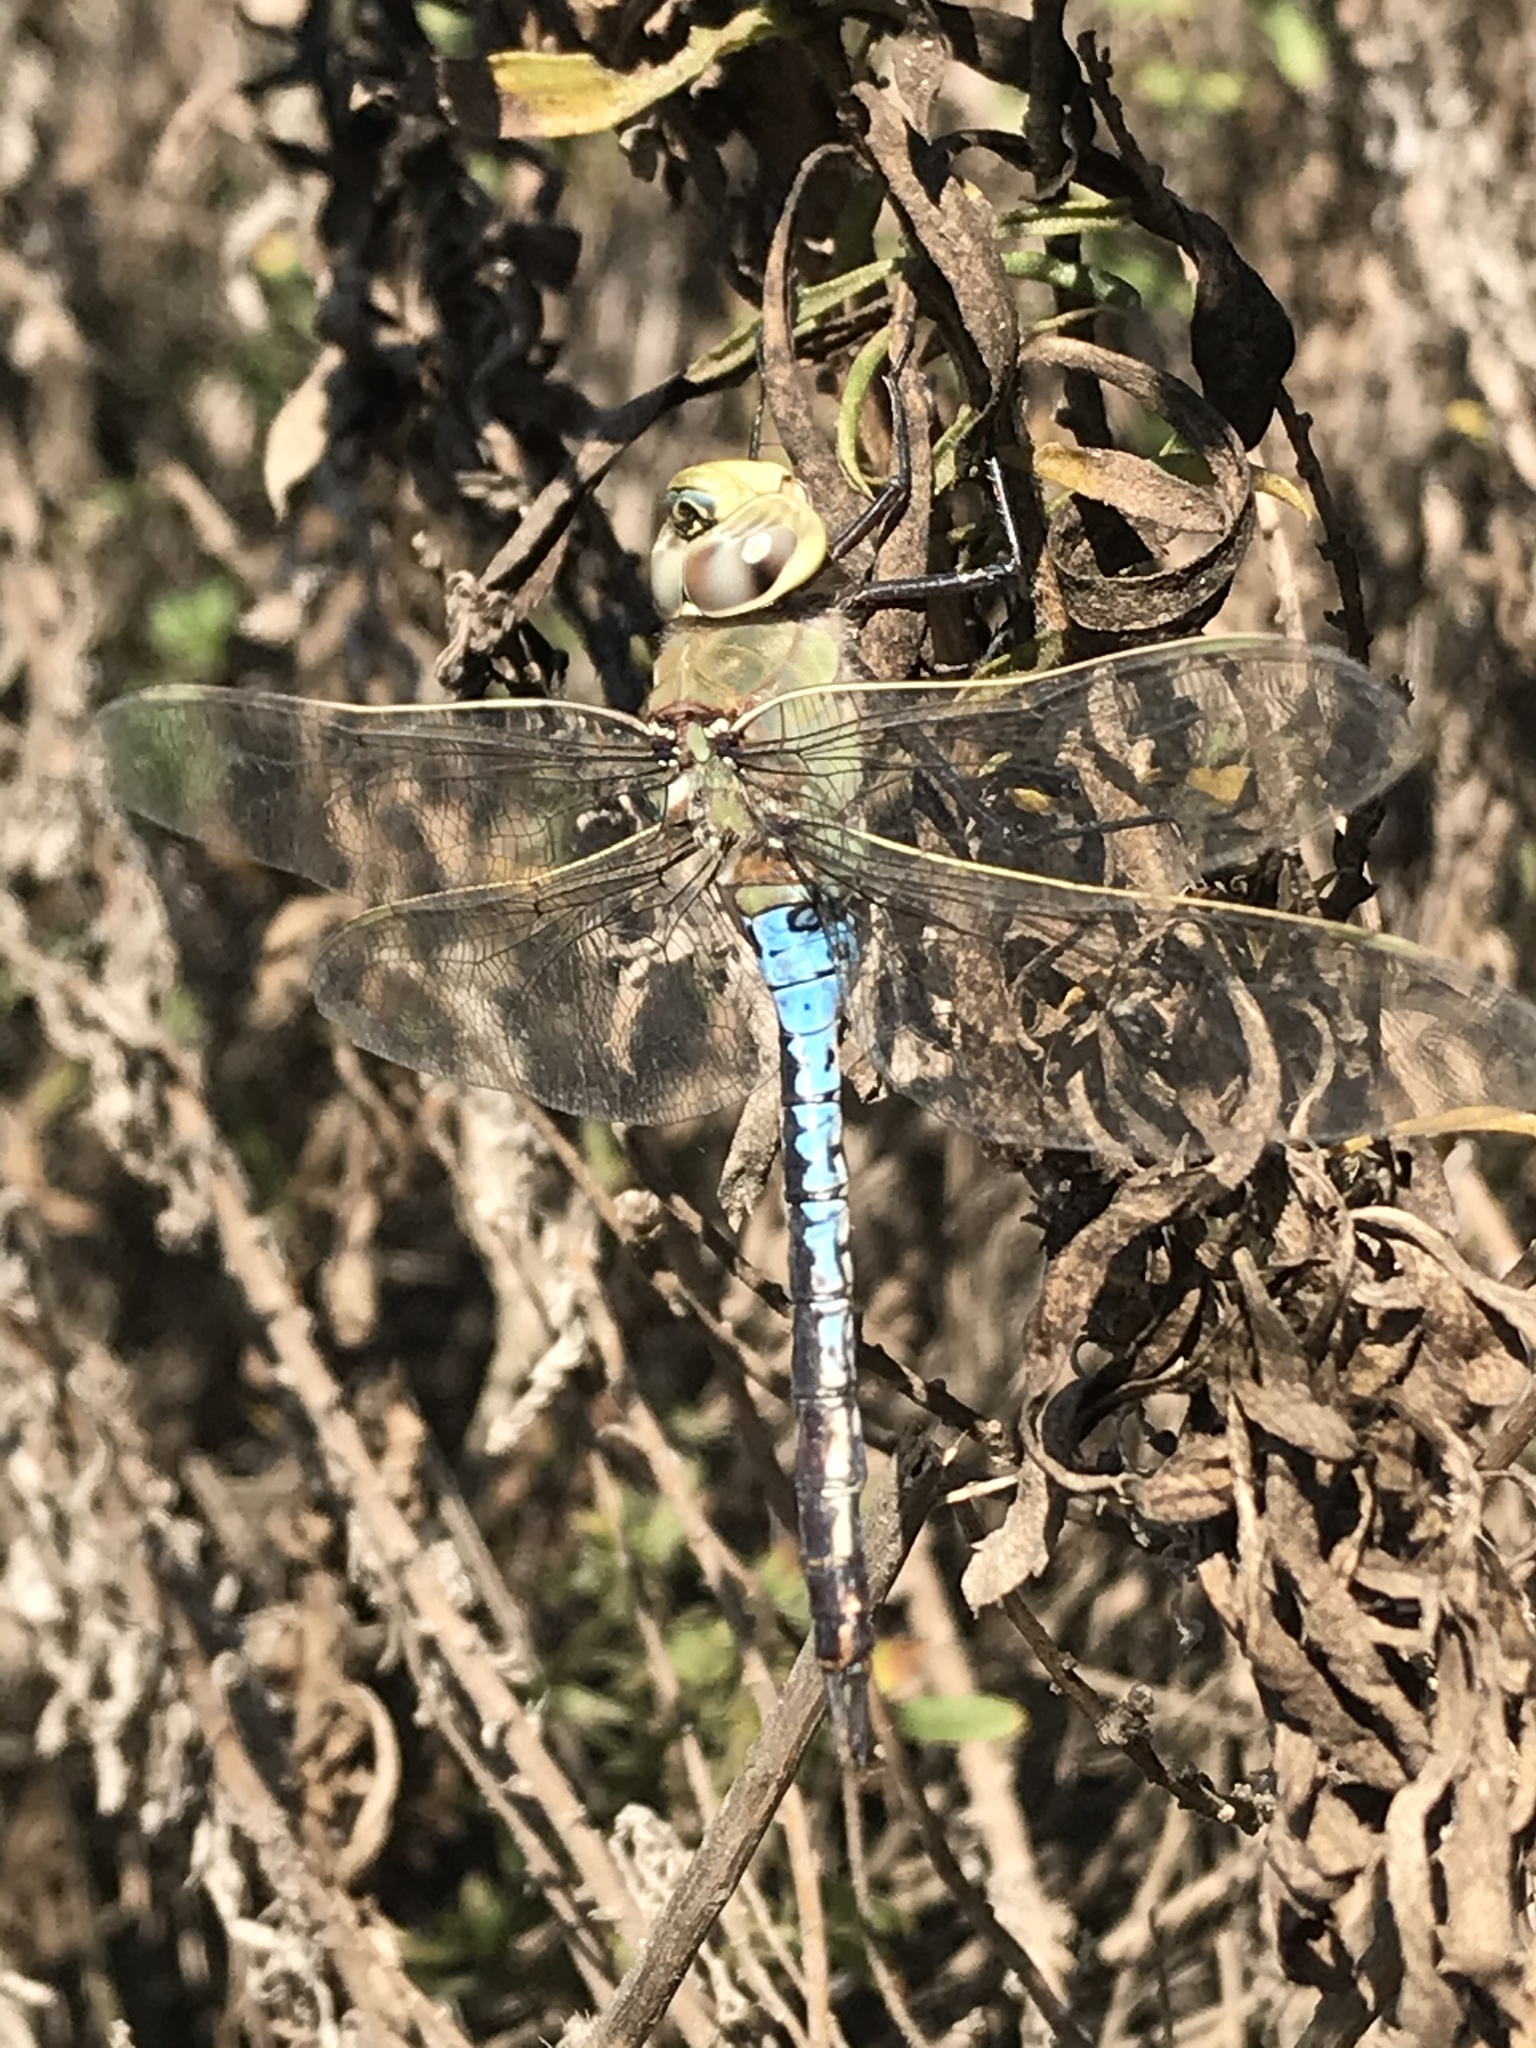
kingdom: Animalia
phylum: Arthropoda
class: Insecta
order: Odonata
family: Aeshnidae
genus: Anax
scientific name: Anax junius
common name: Common green darner
